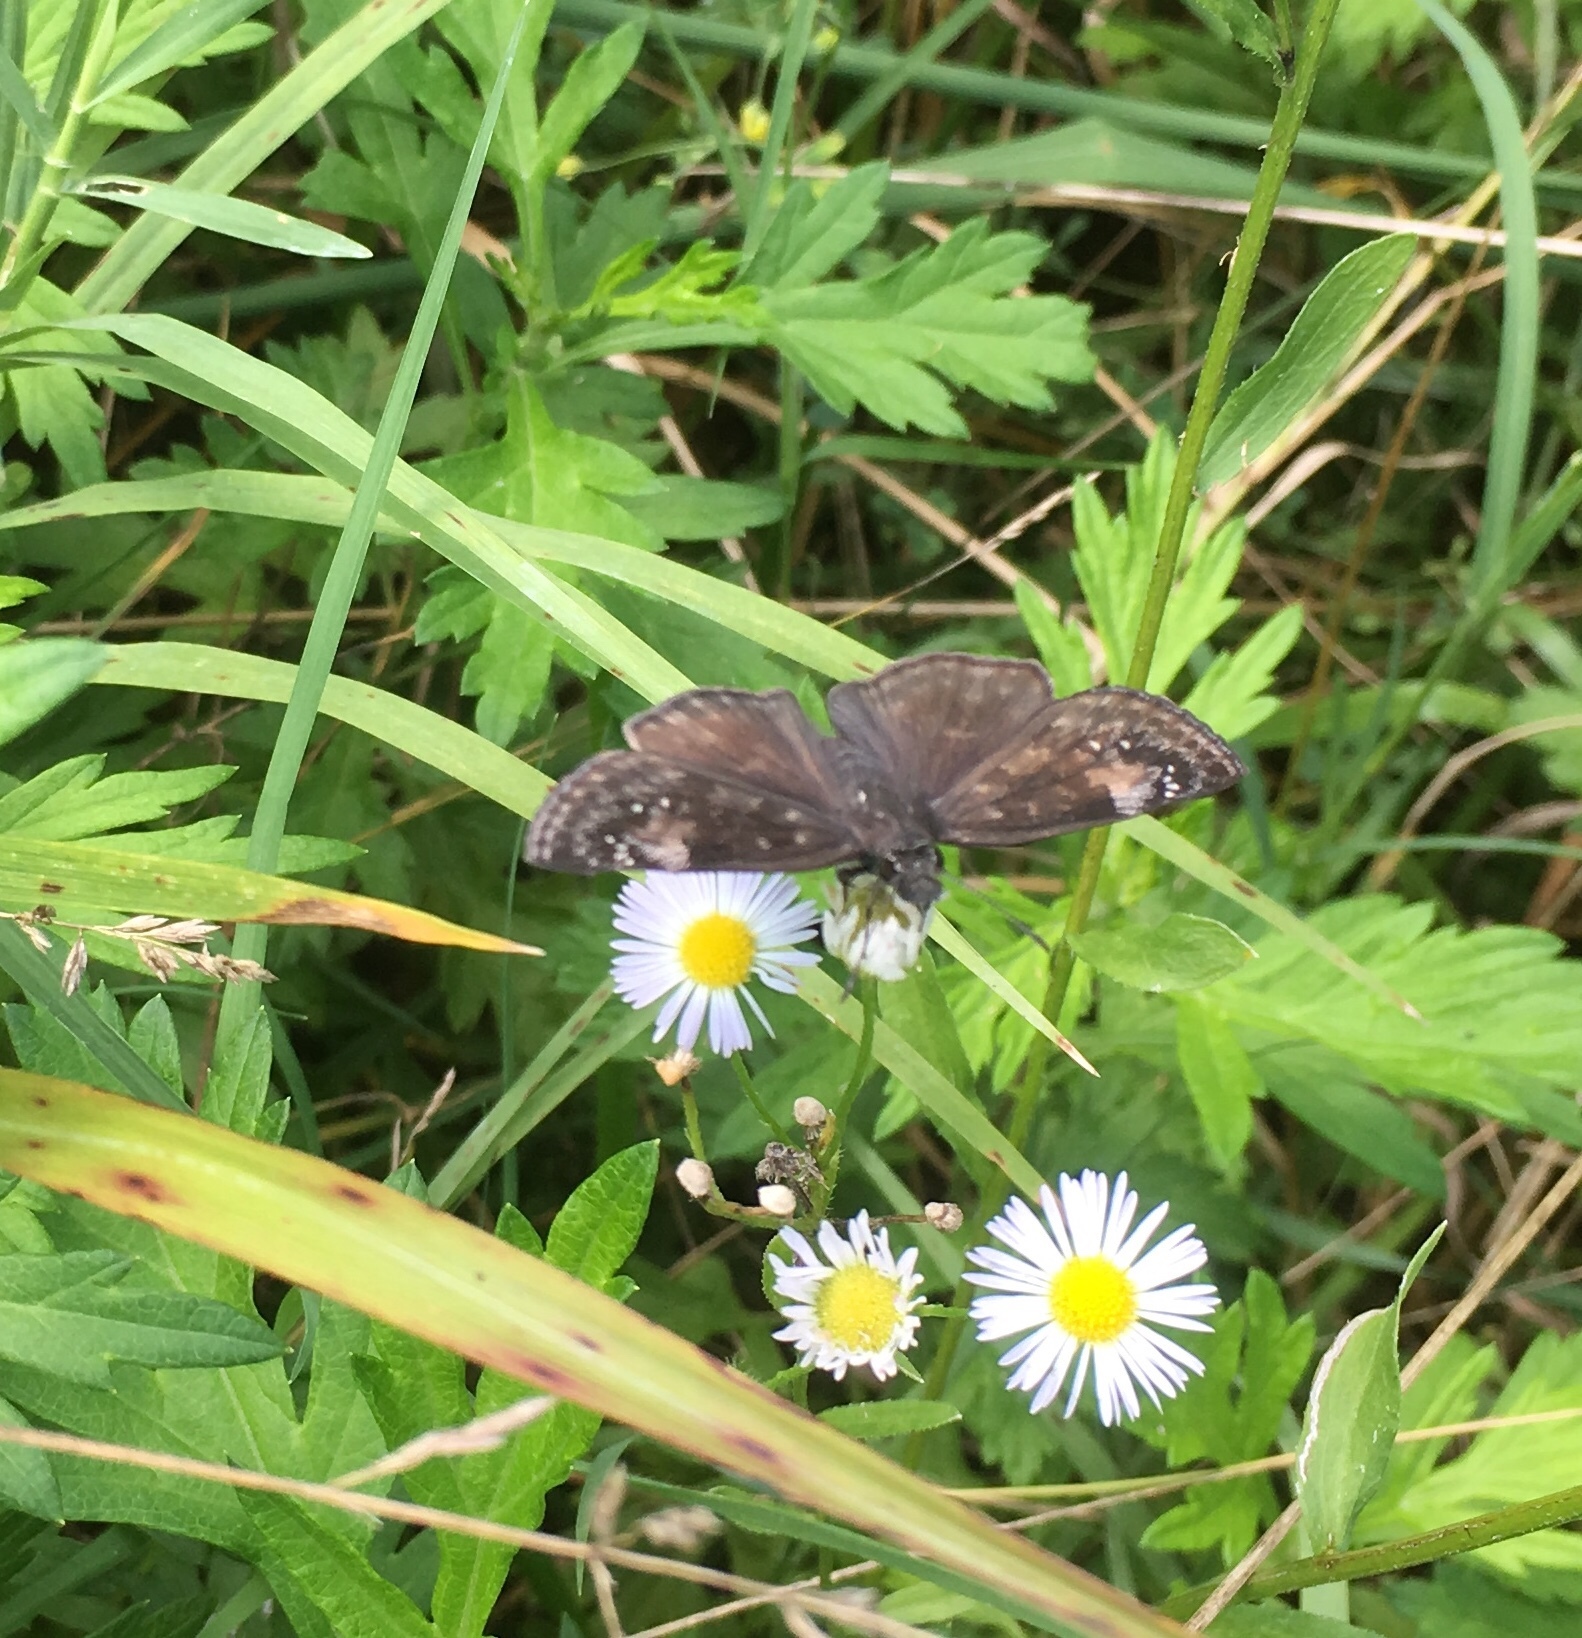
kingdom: Animalia
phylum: Arthropoda
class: Insecta
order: Lepidoptera
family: Hesperiidae
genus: Pholisora
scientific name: Pholisora catullus
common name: Common sootywing
